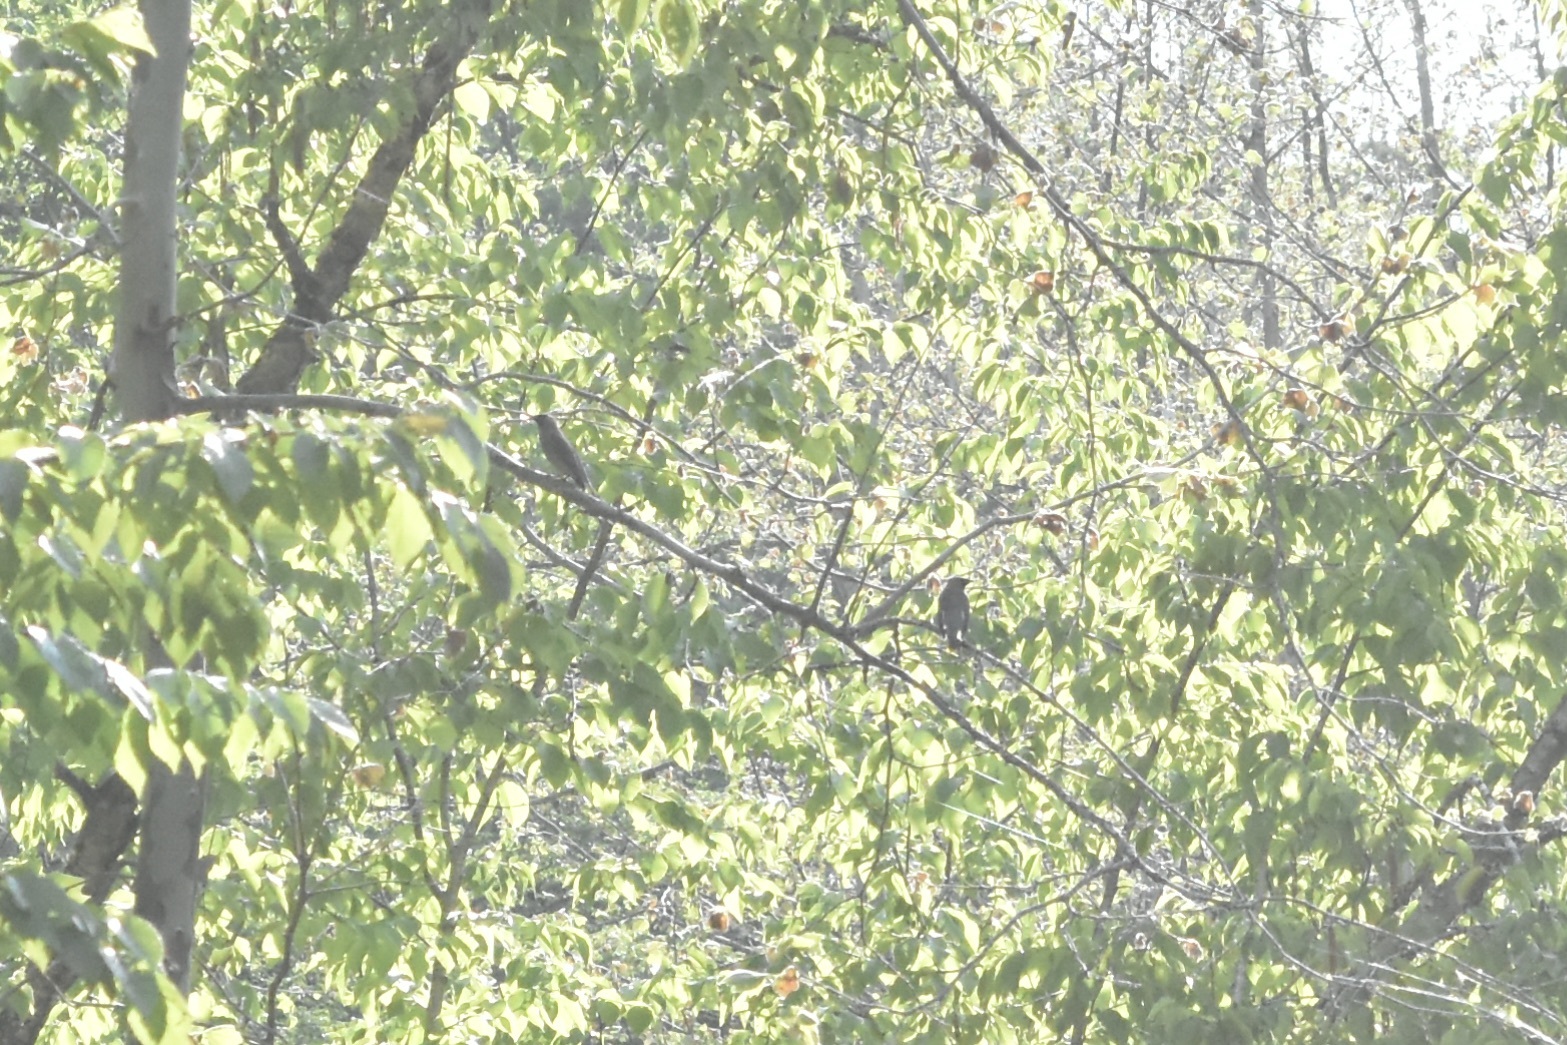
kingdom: Animalia
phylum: Chordata
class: Aves
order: Passeriformes
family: Bombycillidae
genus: Bombycilla
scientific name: Bombycilla cedrorum
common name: Cedar waxwing
